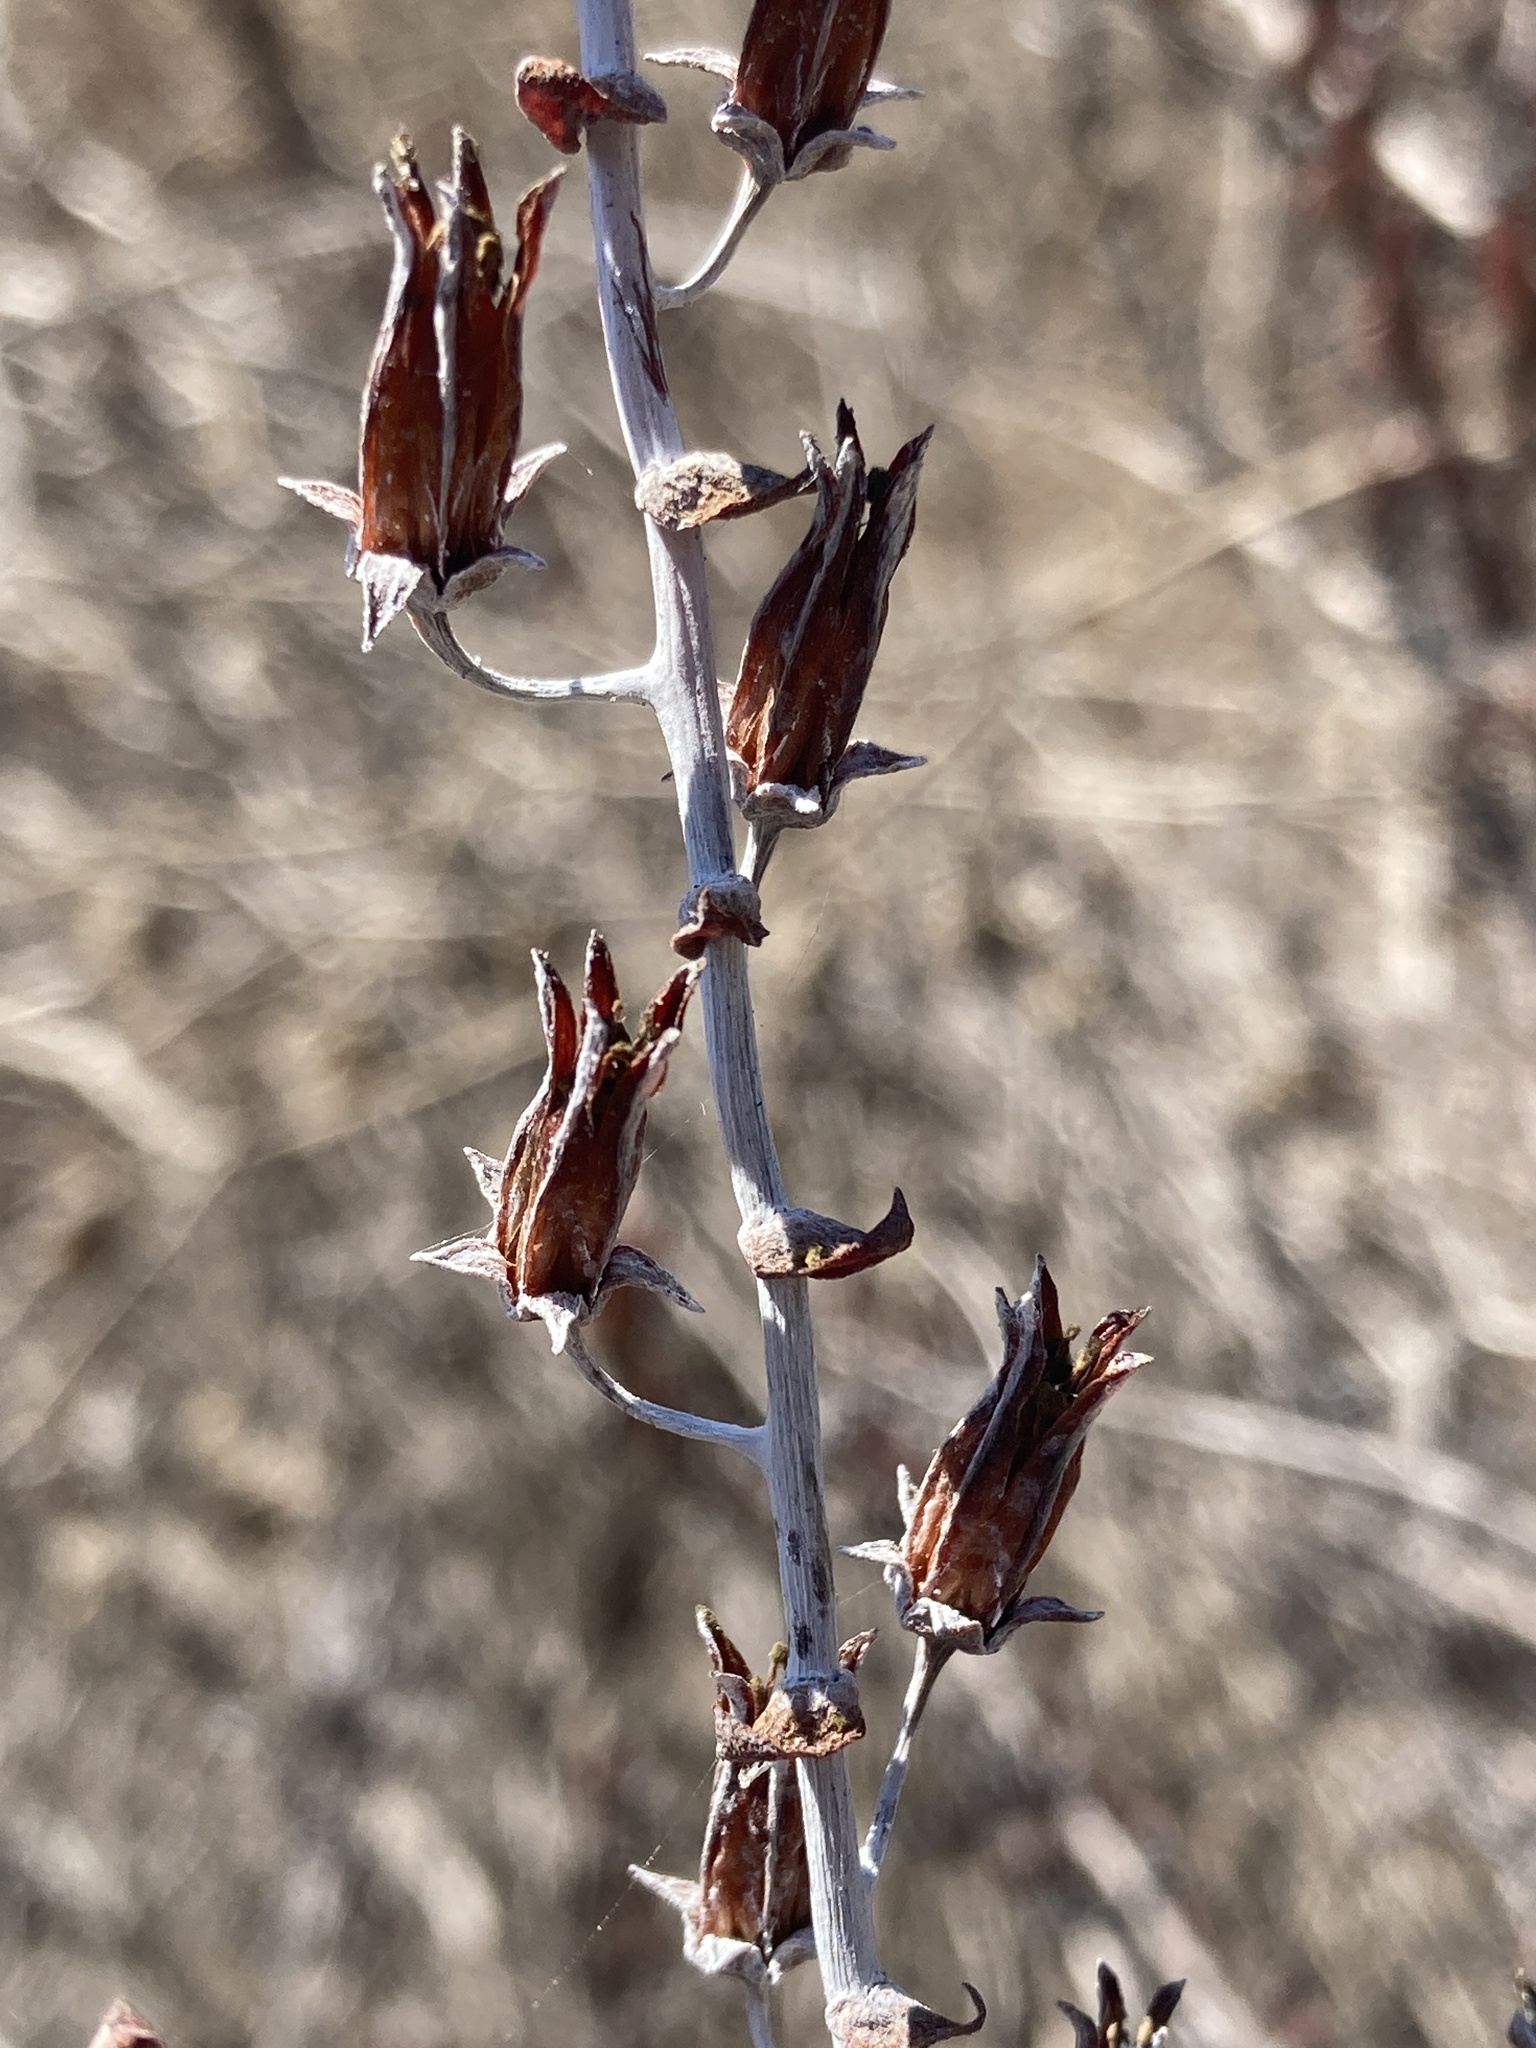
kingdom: Plantae
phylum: Tracheophyta
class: Magnoliopsida
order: Saxifragales
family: Crassulaceae
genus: Dudleya
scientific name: Dudleya pulverulenta
